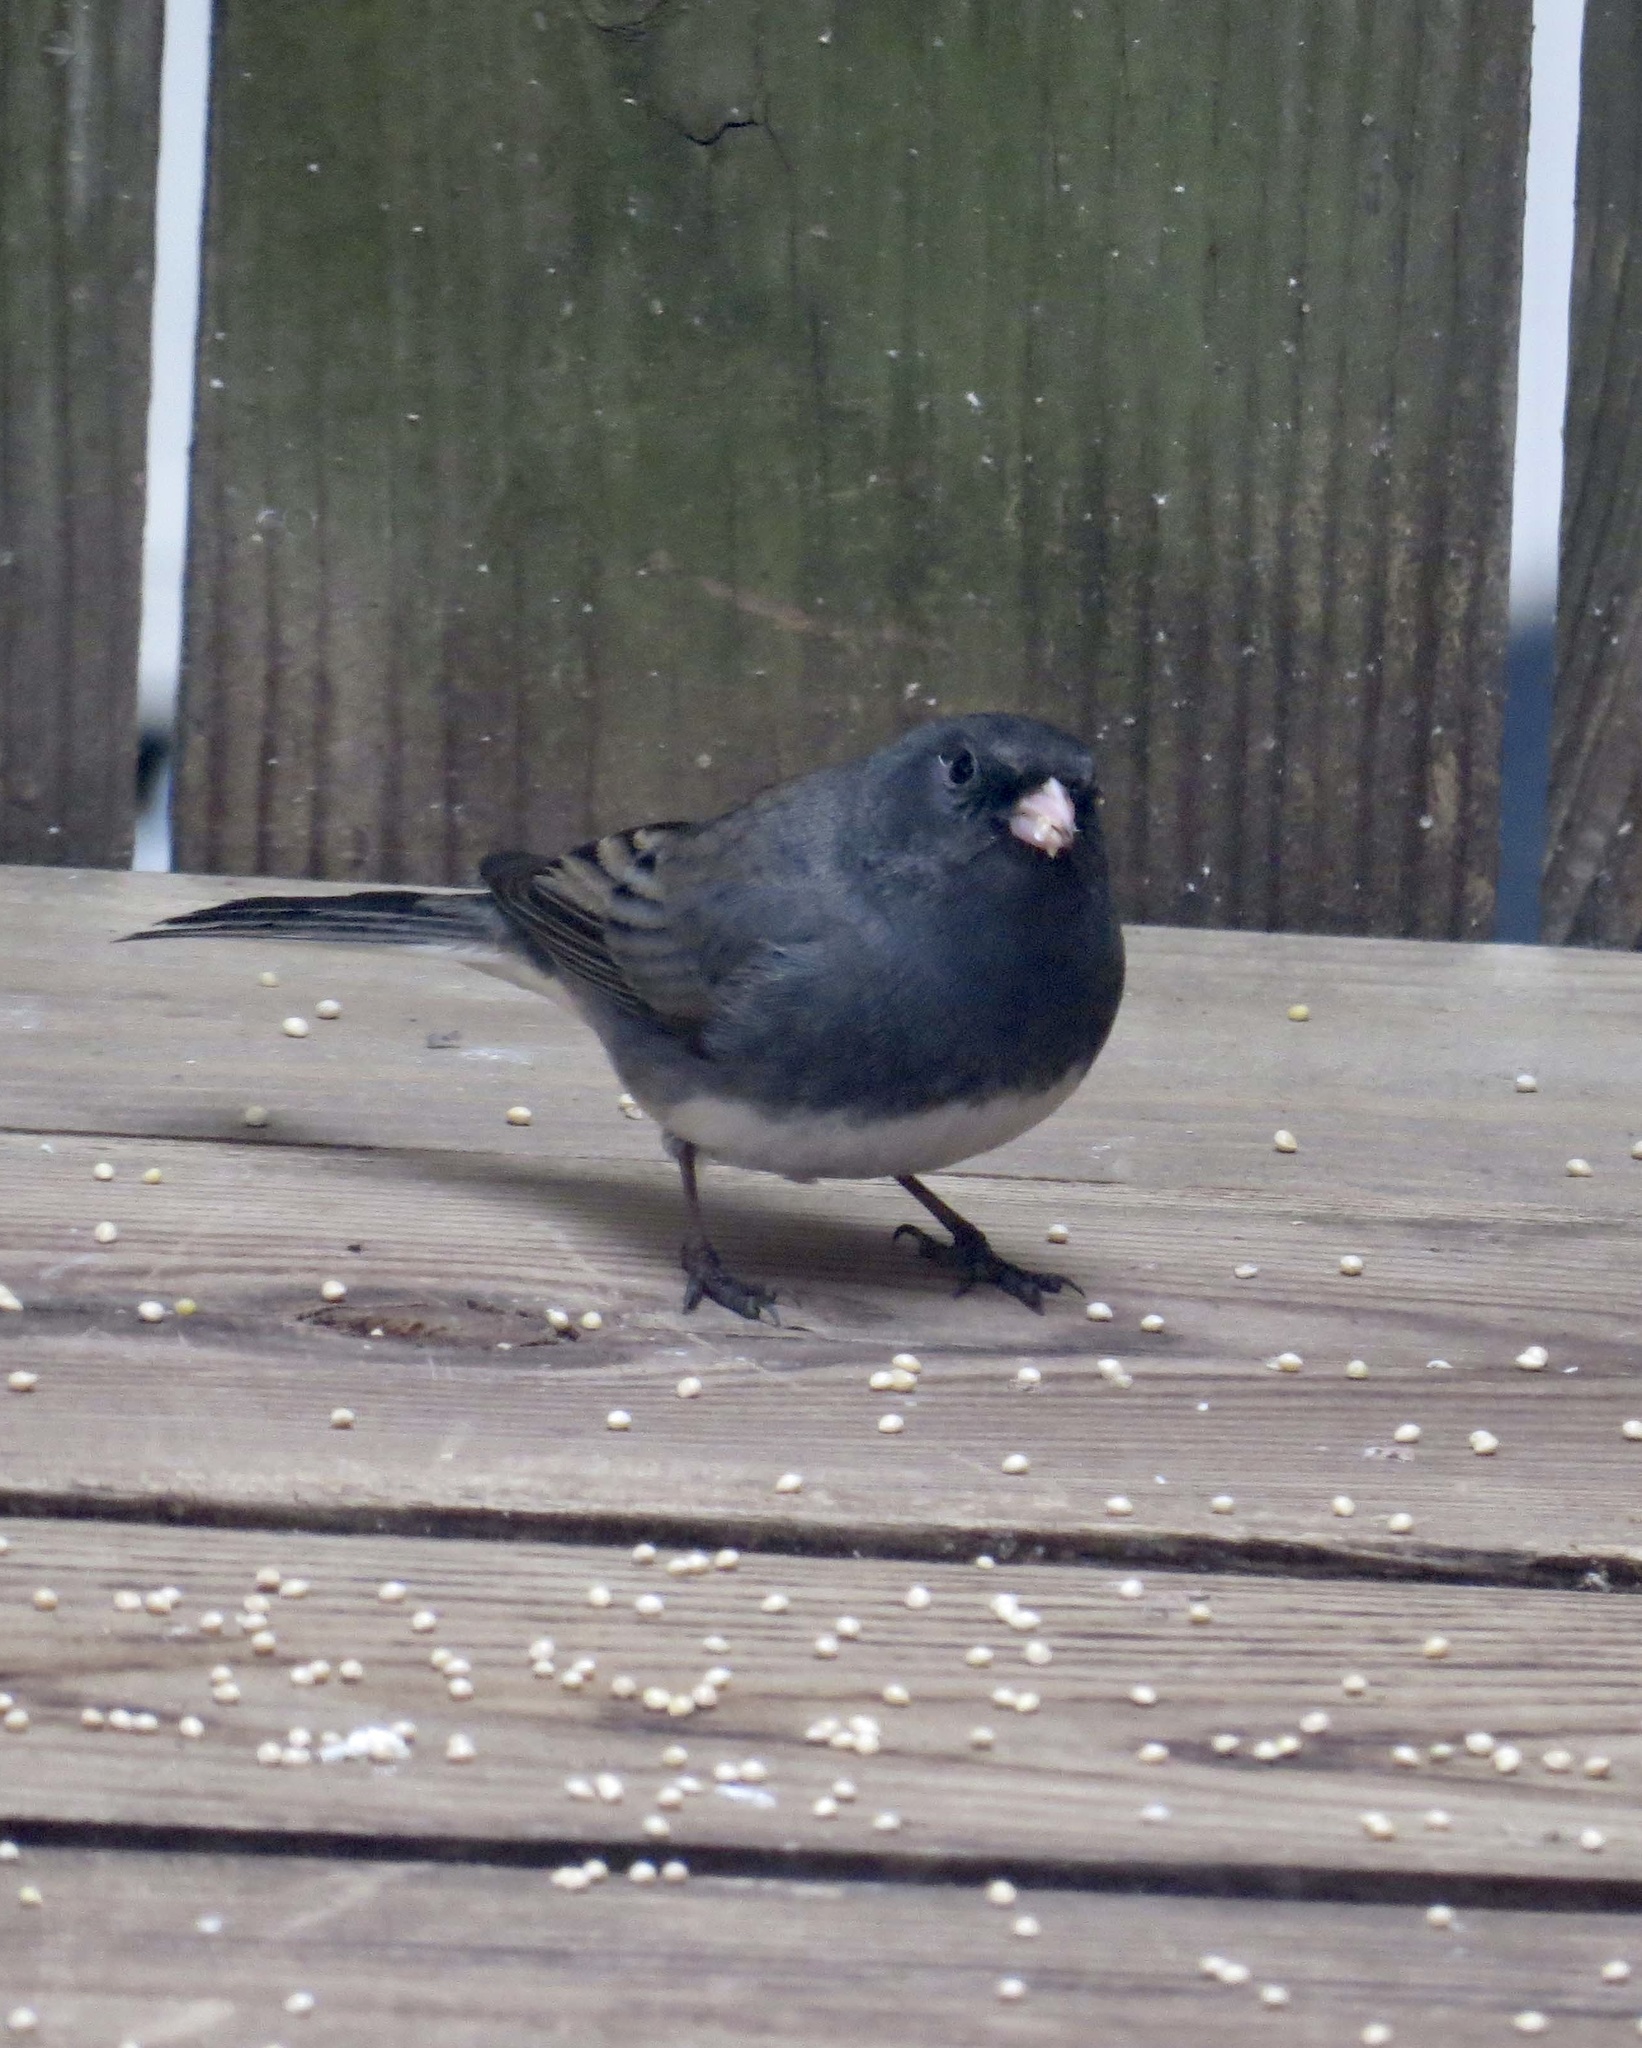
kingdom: Animalia
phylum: Chordata
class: Aves
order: Passeriformes
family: Passerellidae
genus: Junco
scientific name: Junco hyemalis
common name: Dark-eyed junco
